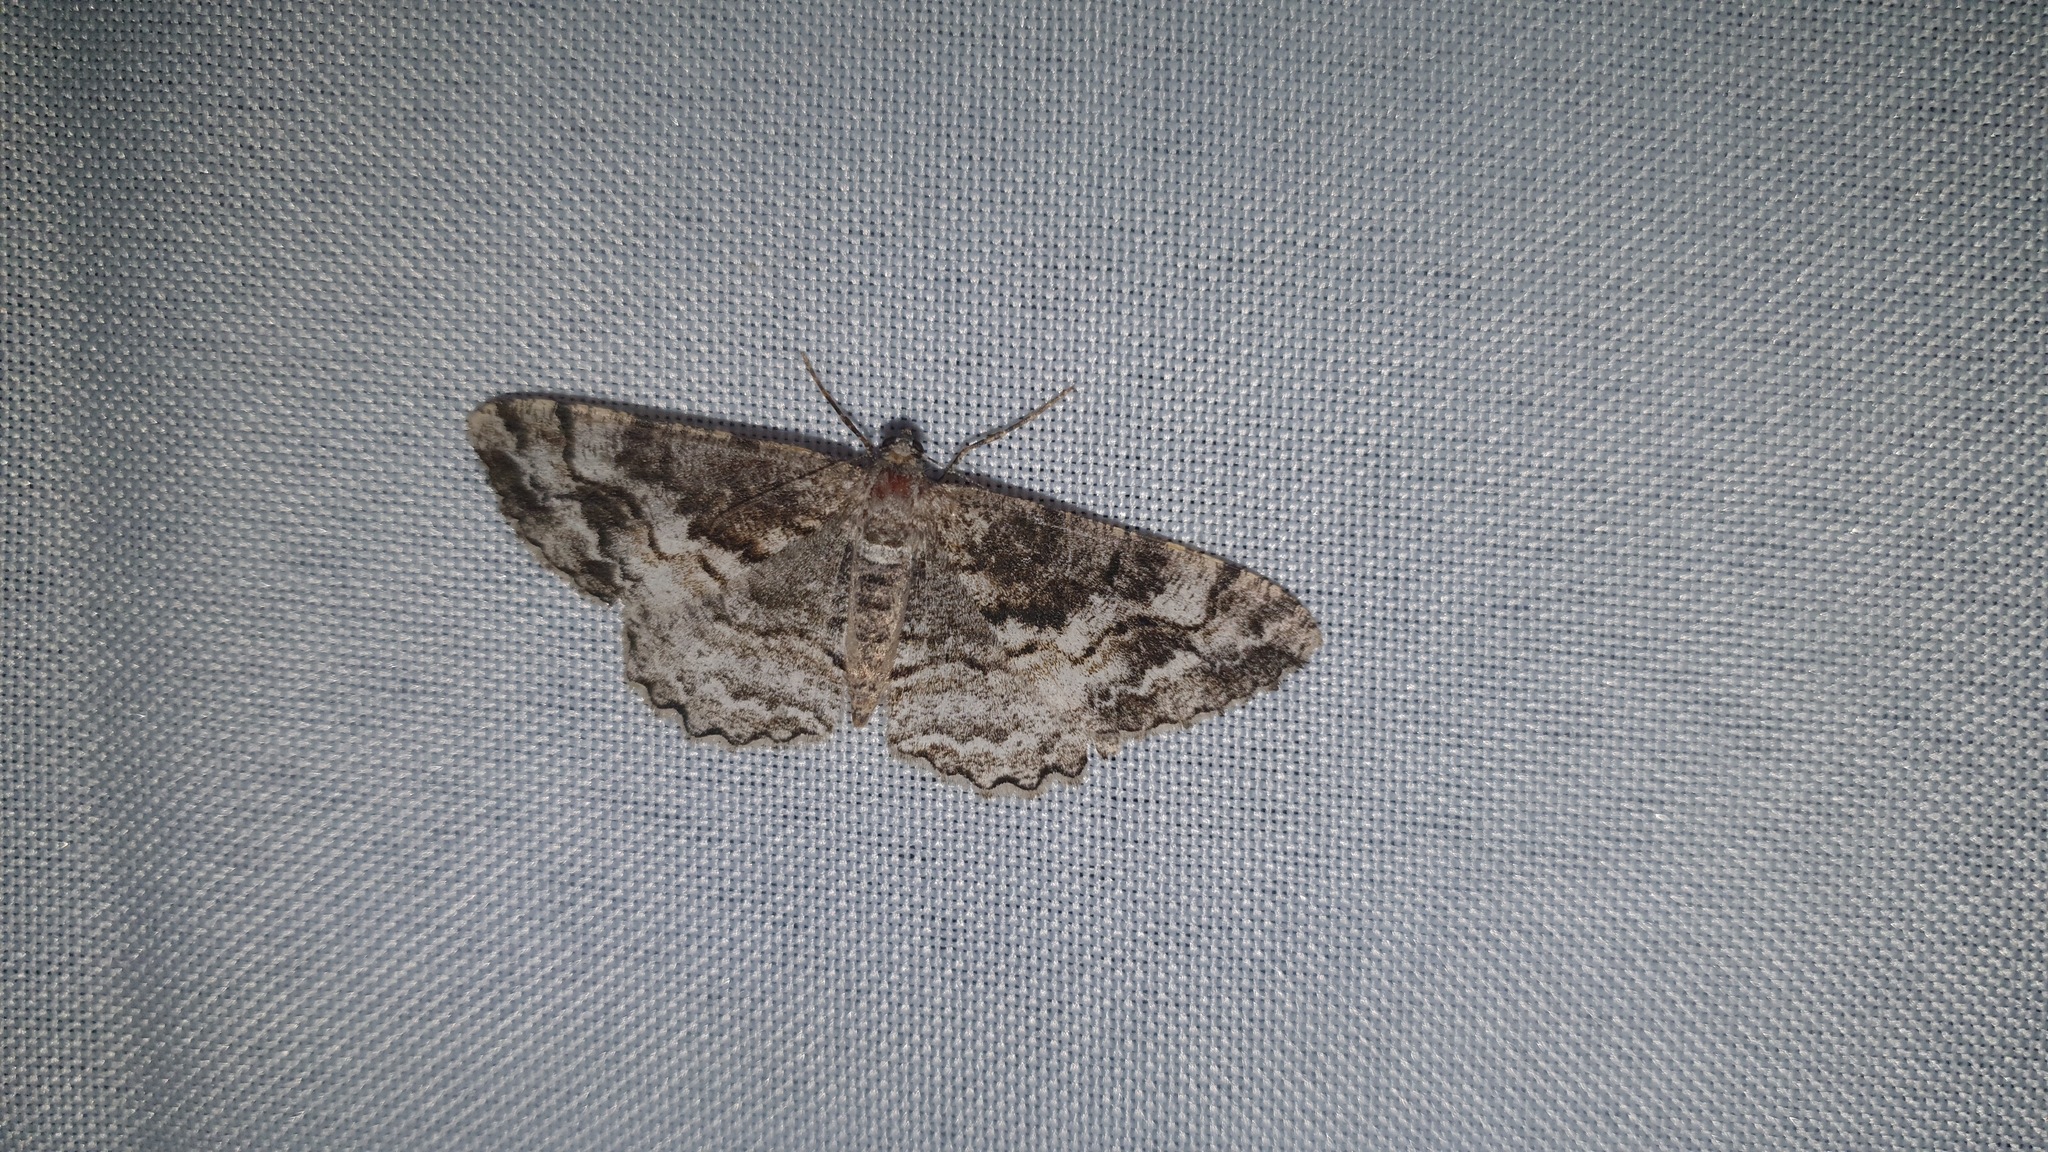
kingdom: Animalia
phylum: Arthropoda
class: Insecta
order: Lepidoptera
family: Geometridae
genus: Alcis
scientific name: Alcis repandata
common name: Mottled beauty
